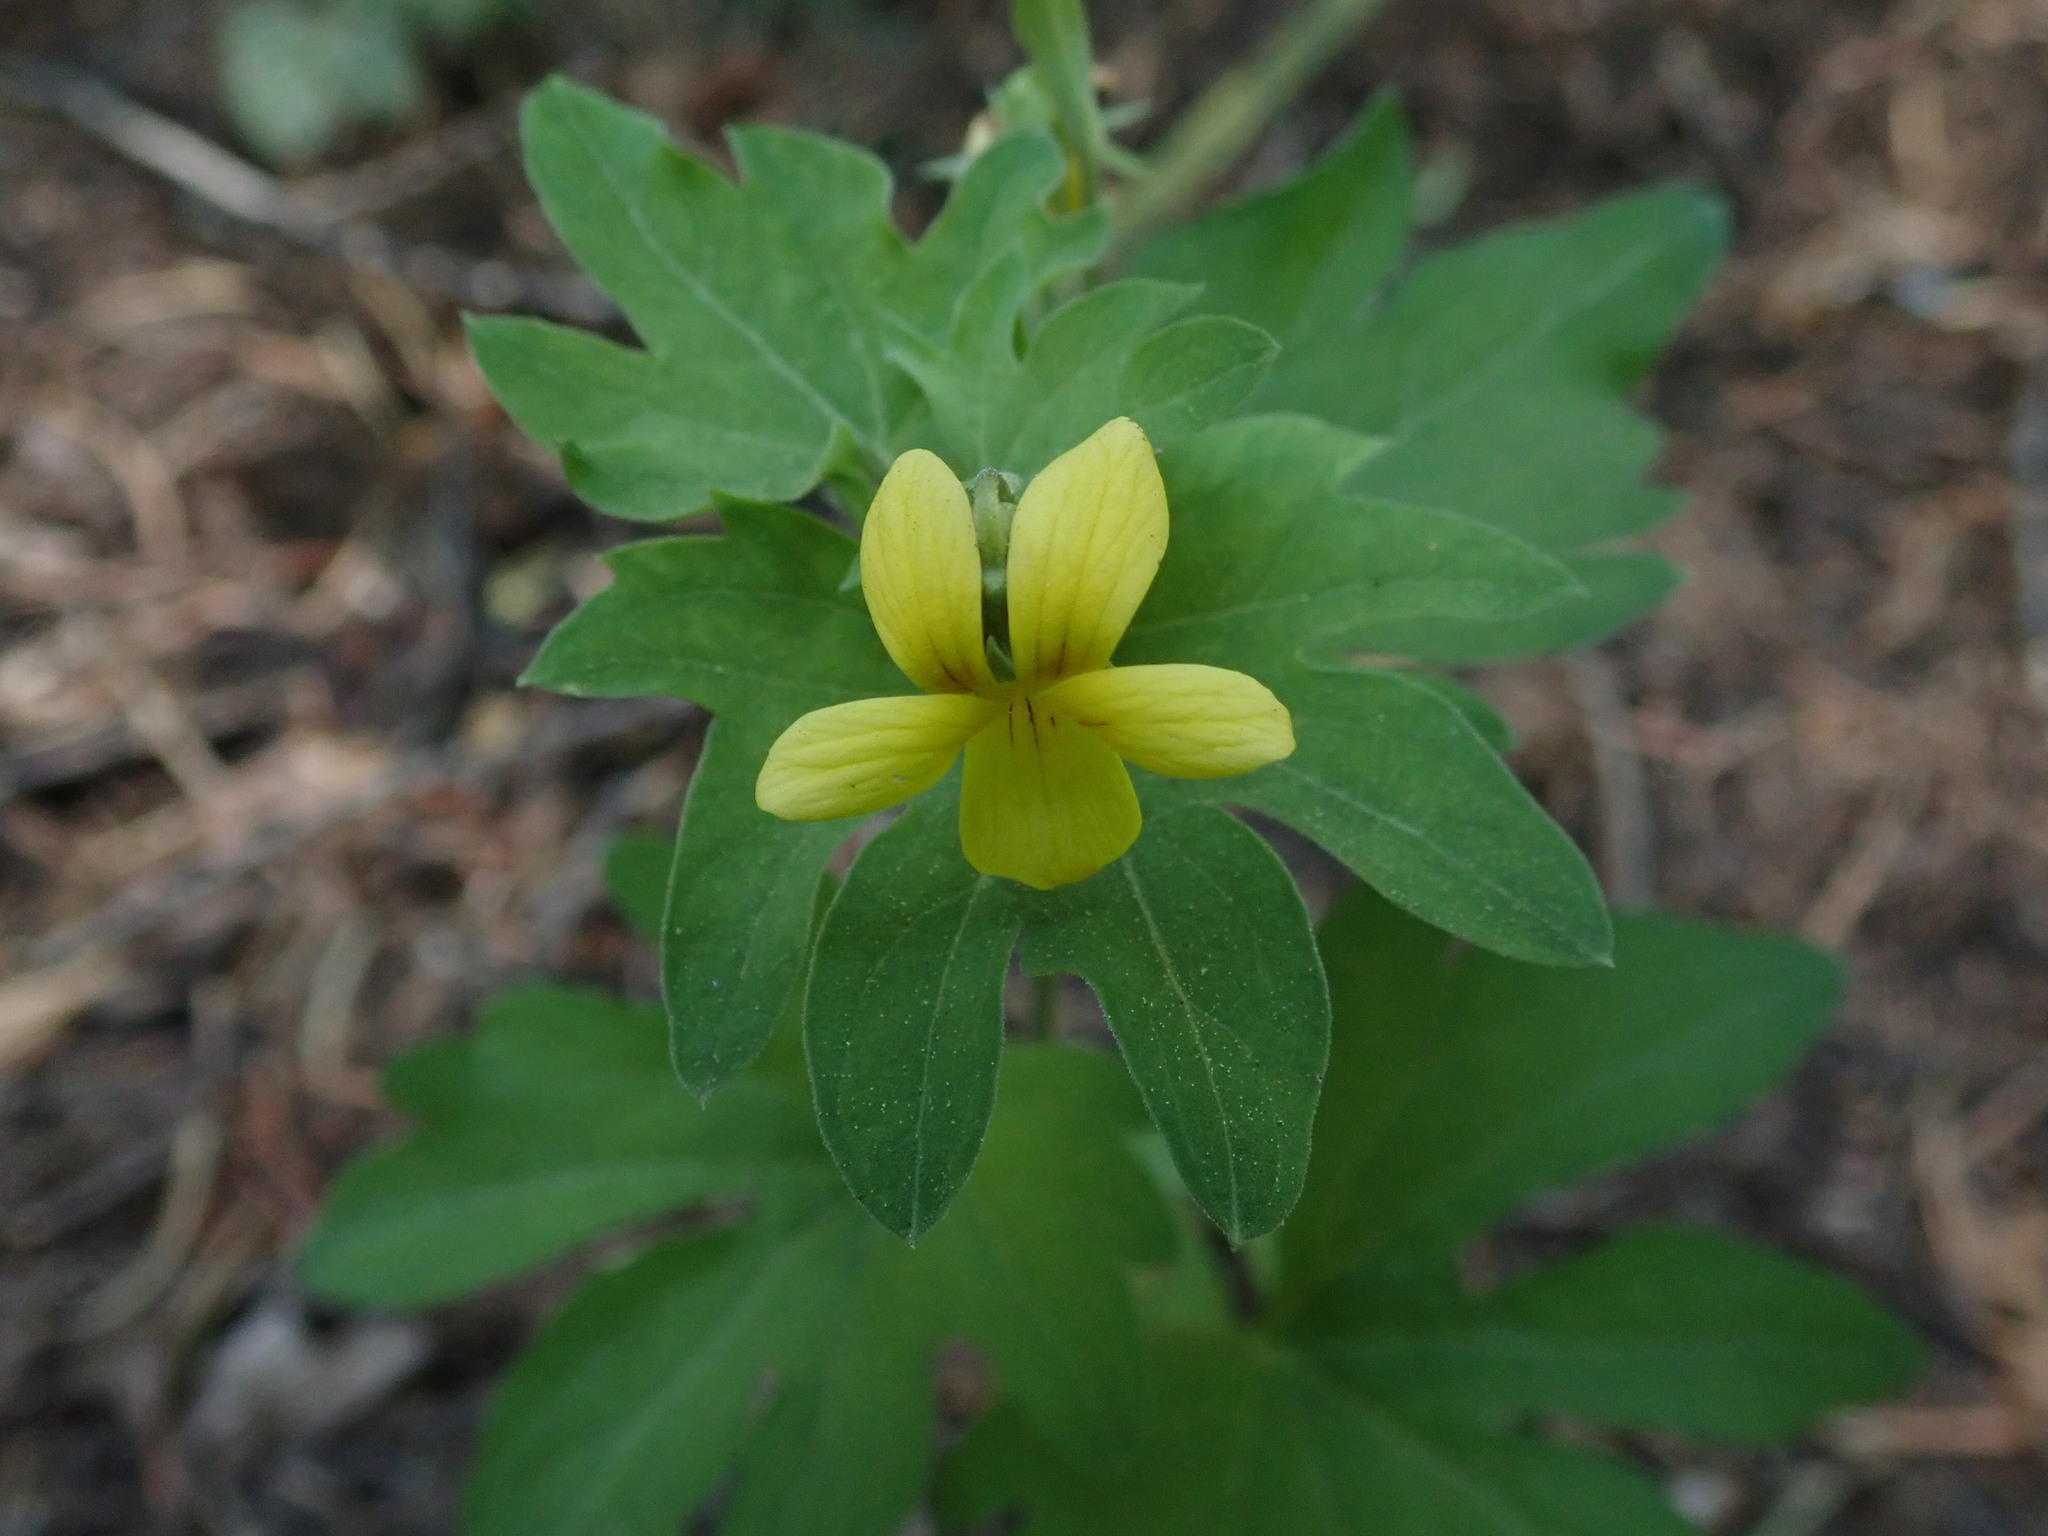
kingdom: Plantae
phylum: Tracheophyta
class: Magnoliopsida
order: Malpighiales
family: Violaceae
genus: Viola
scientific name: Viola lobata
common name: Pine violet
